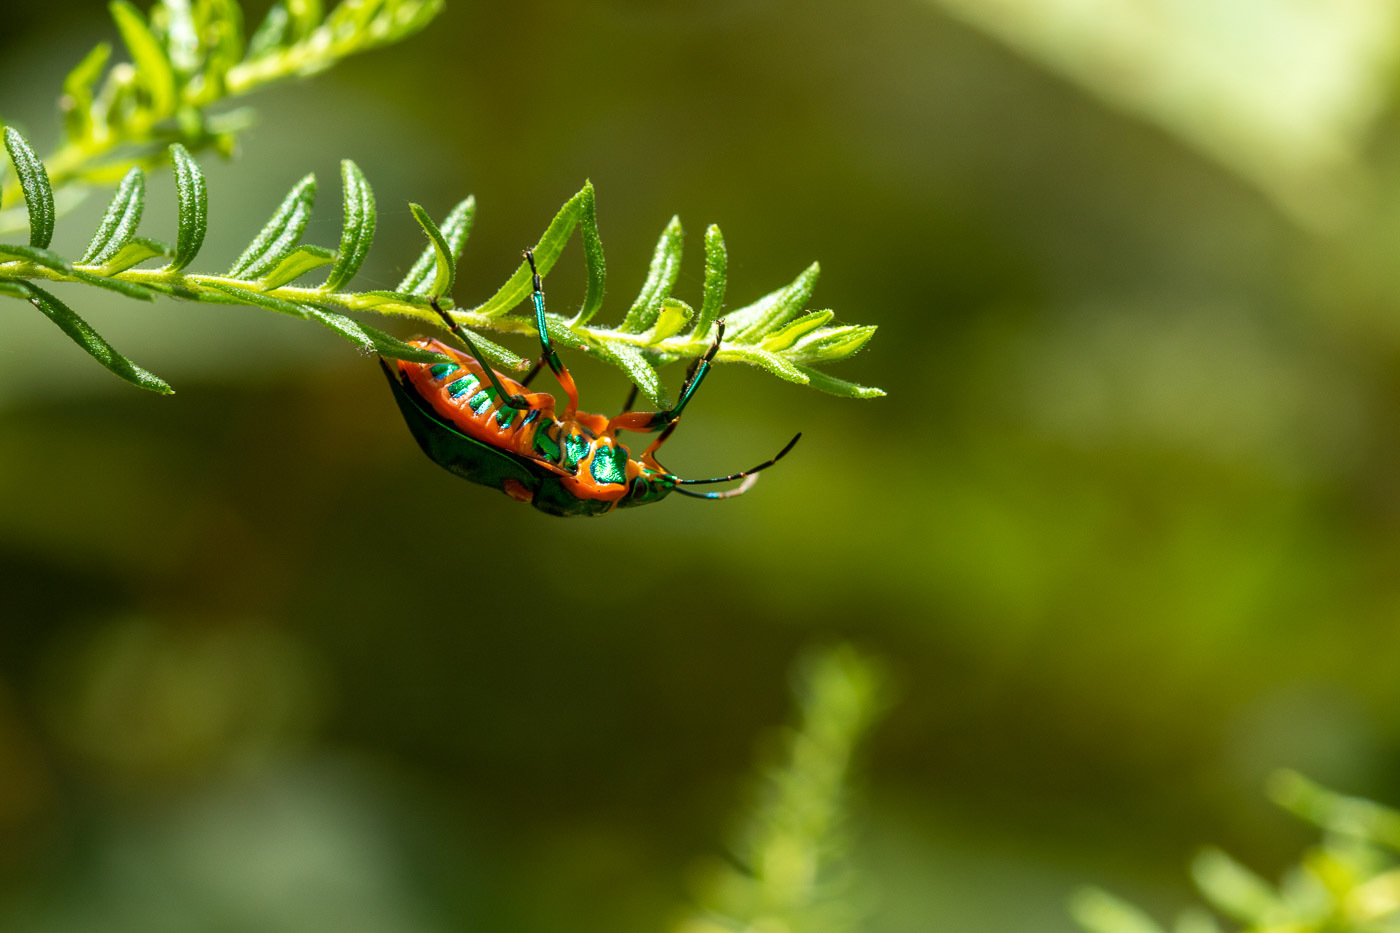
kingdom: Animalia
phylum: Arthropoda
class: Insecta
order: Hemiptera
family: Scutelleridae
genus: Scutiphora
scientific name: Scutiphora pedicellata
